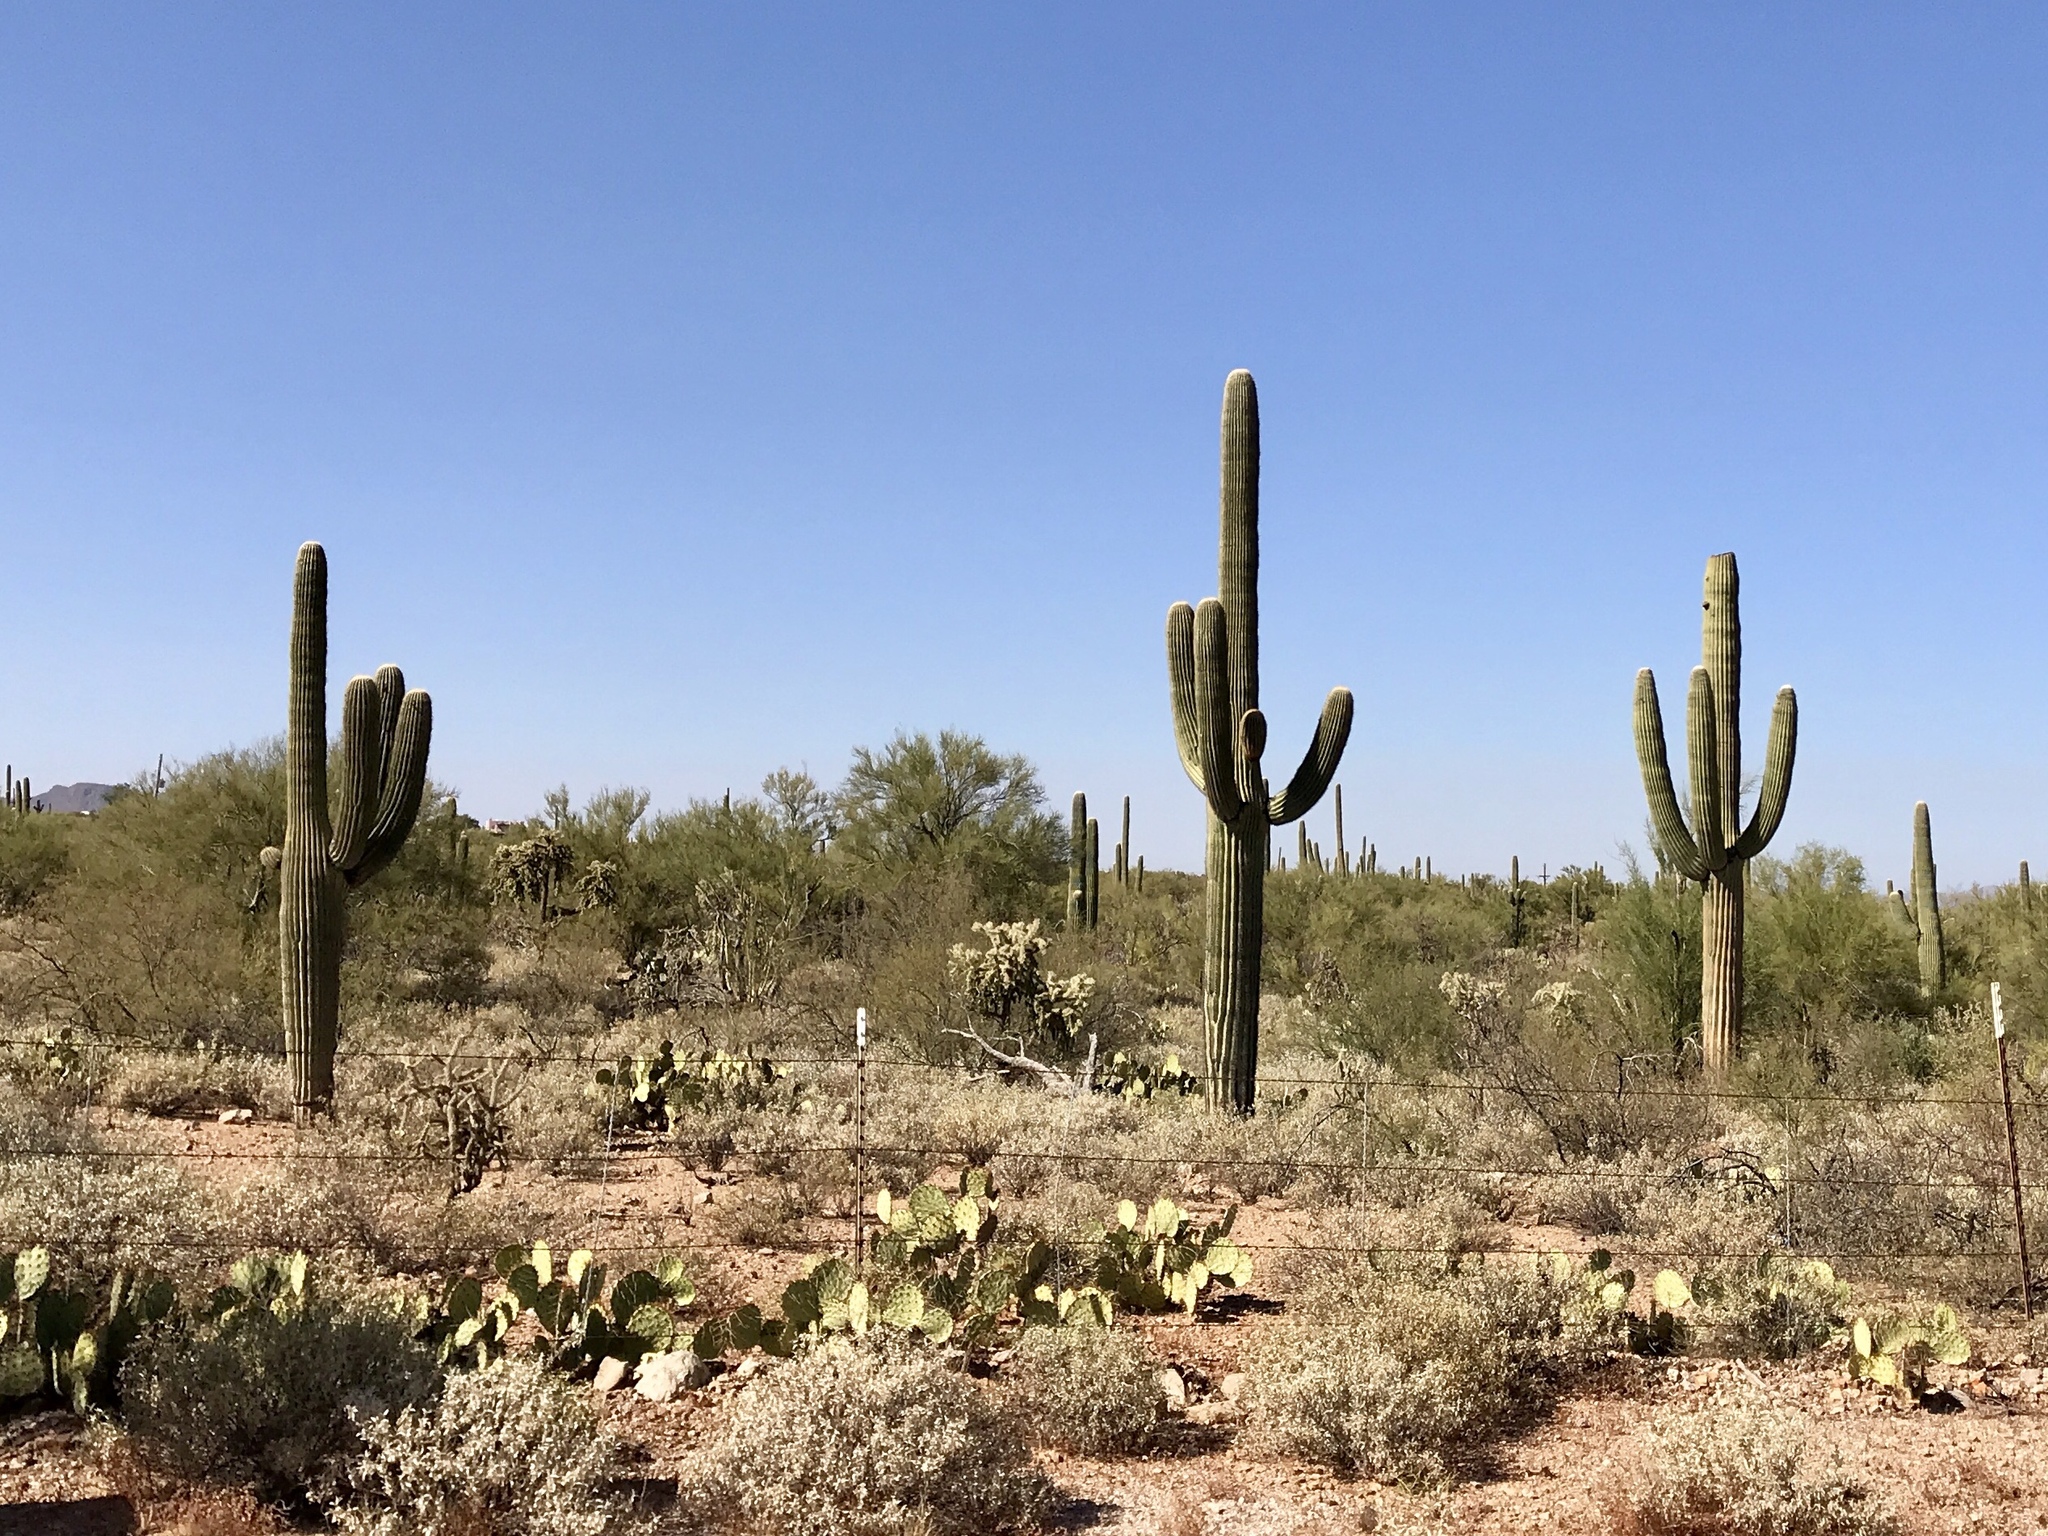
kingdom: Plantae
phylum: Tracheophyta
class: Magnoliopsida
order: Caryophyllales
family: Cactaceae
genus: Carnegiea
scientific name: Carnegiea gigantea
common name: Saguaro
